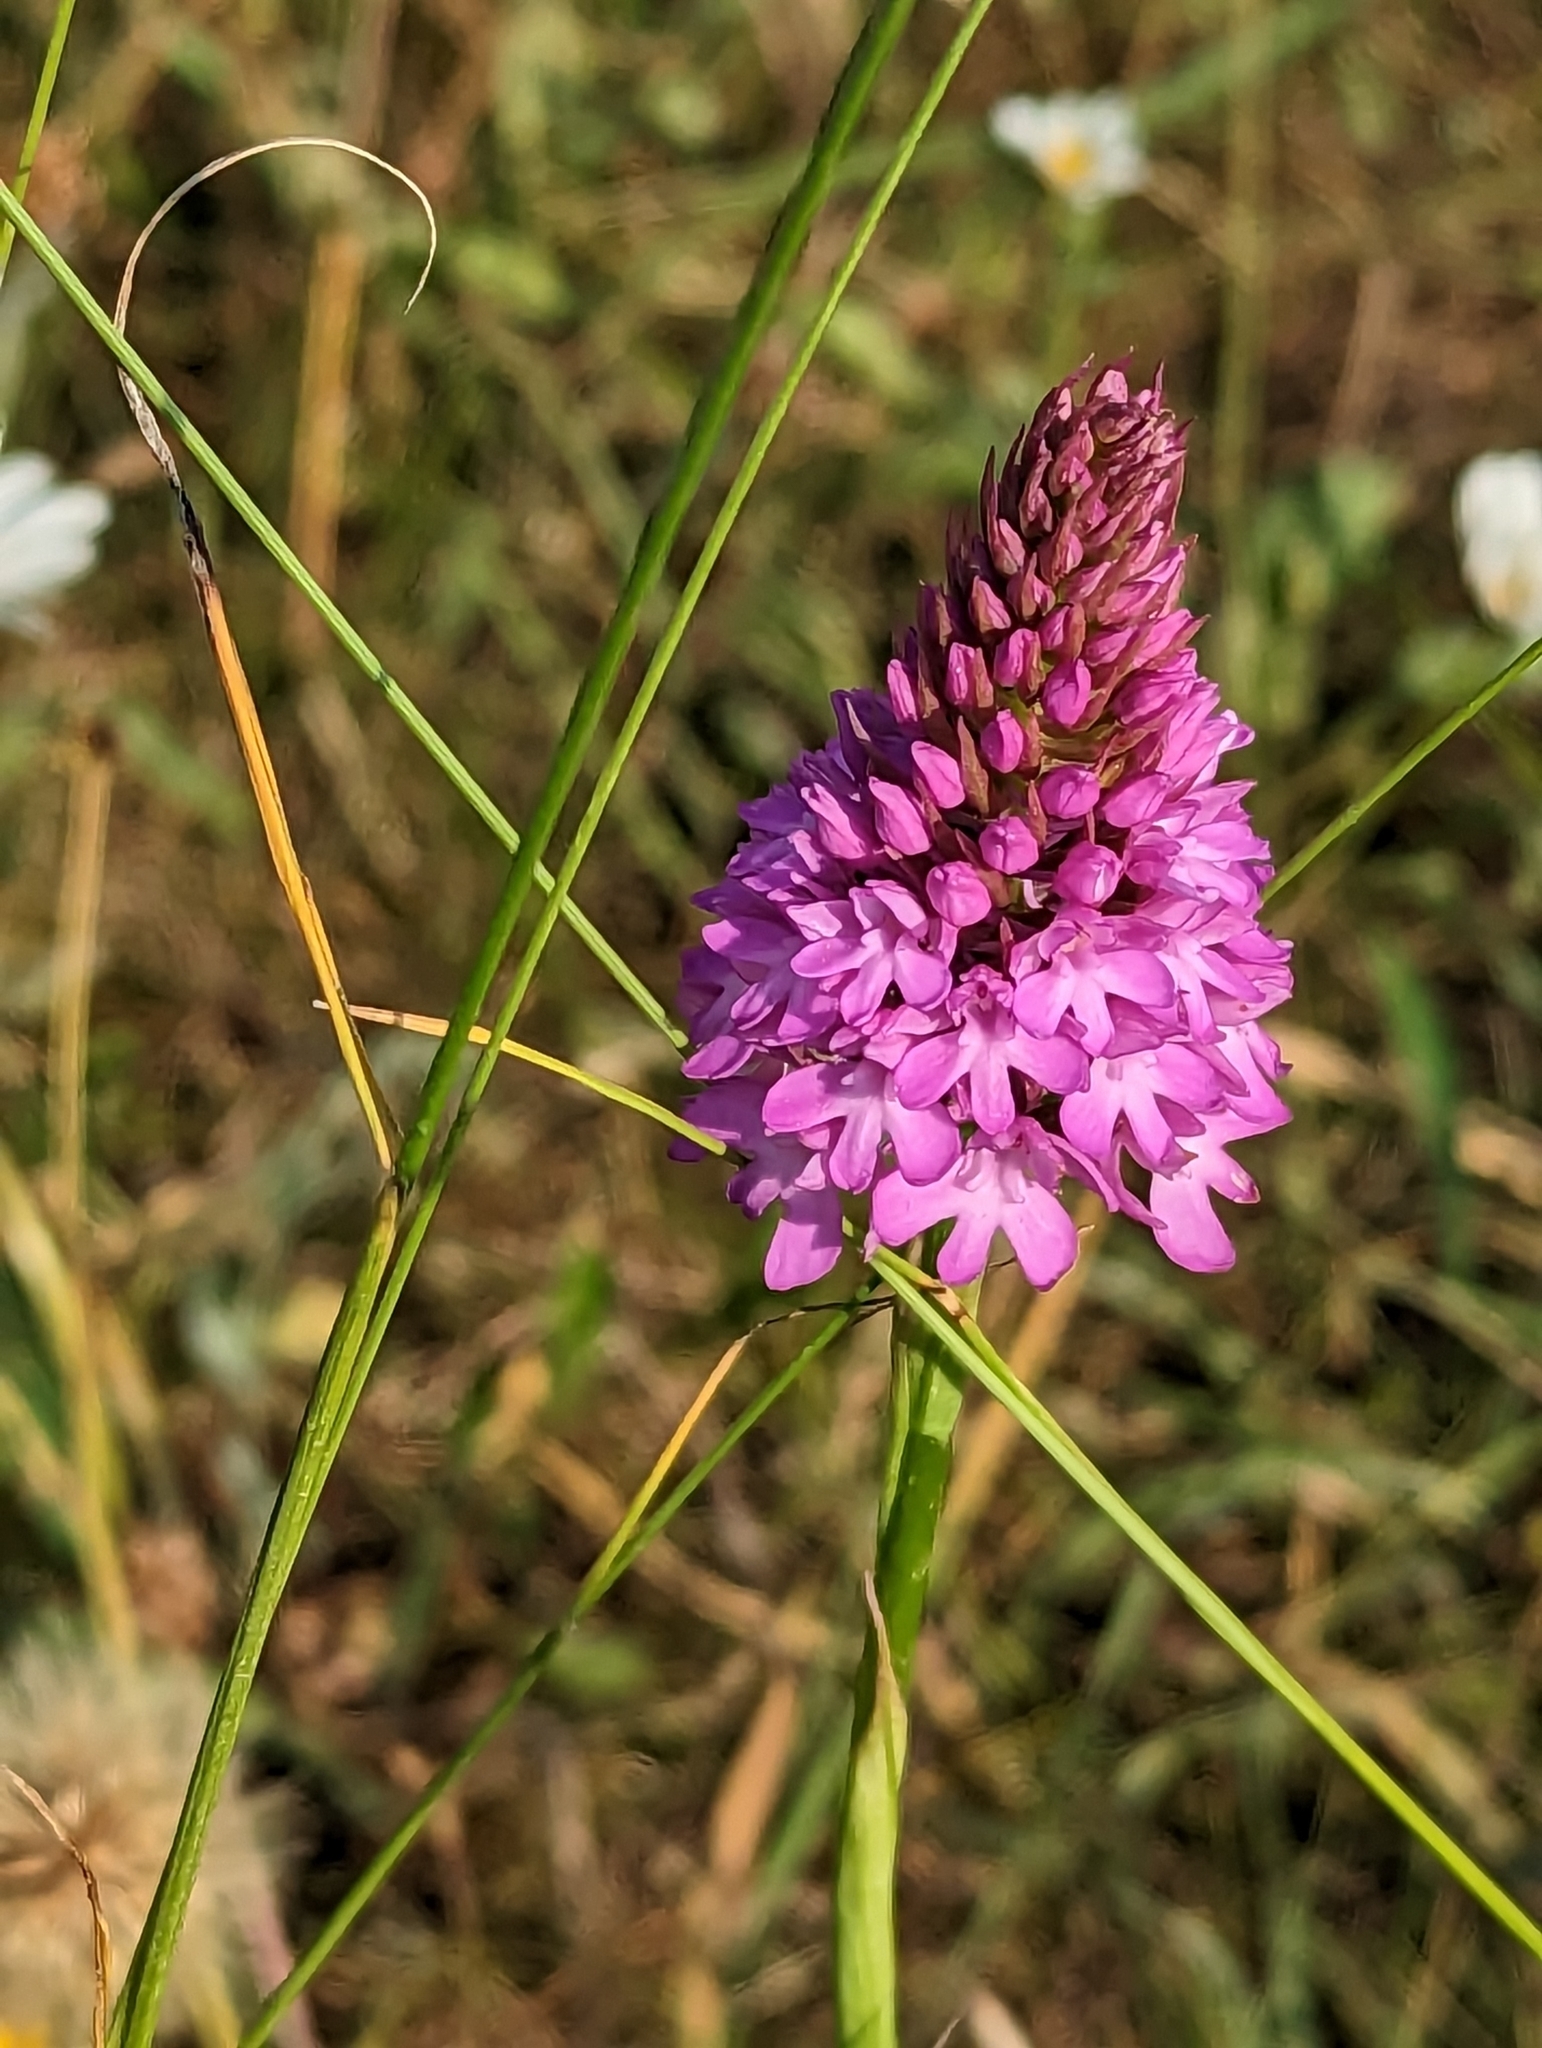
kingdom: Plantae
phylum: Tracheophyta
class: Liliopsida
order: Asparagales
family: Orchidaceae
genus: Anacamptis
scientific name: Anacamptis pyramidalis
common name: Pyramidal orchid
